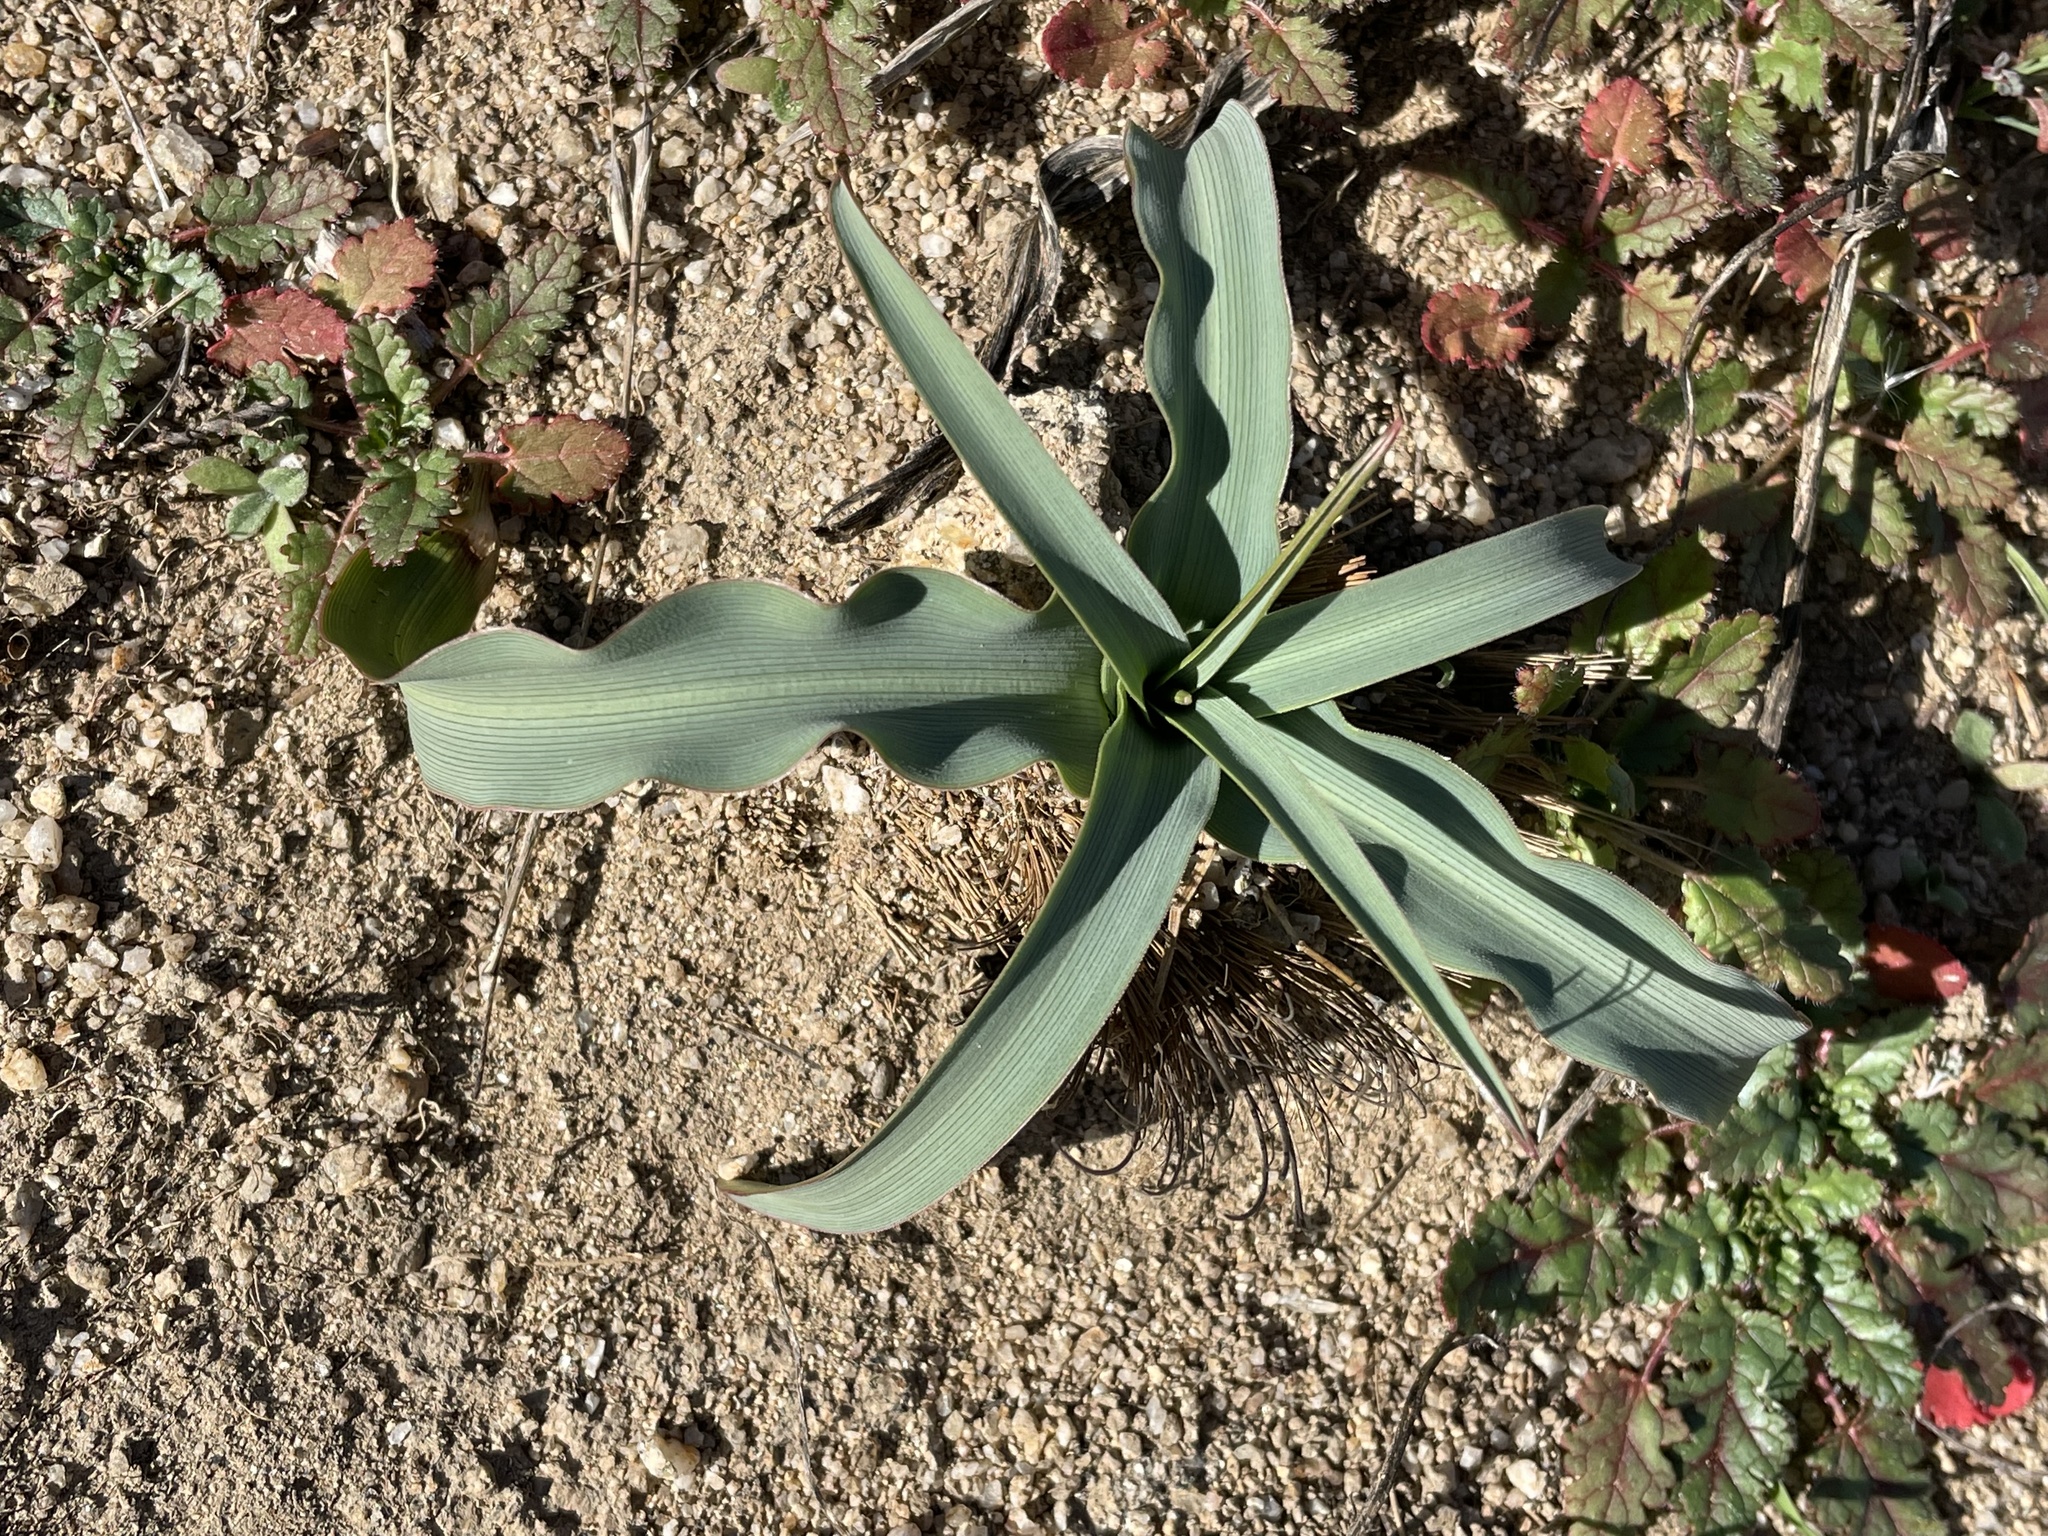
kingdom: Plantae
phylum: Tracheophyta
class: Liliopsida
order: Asparagales
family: Asparagaceae
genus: Chlorogalum
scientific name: Chlorogalum pomeridianum
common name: Amole
